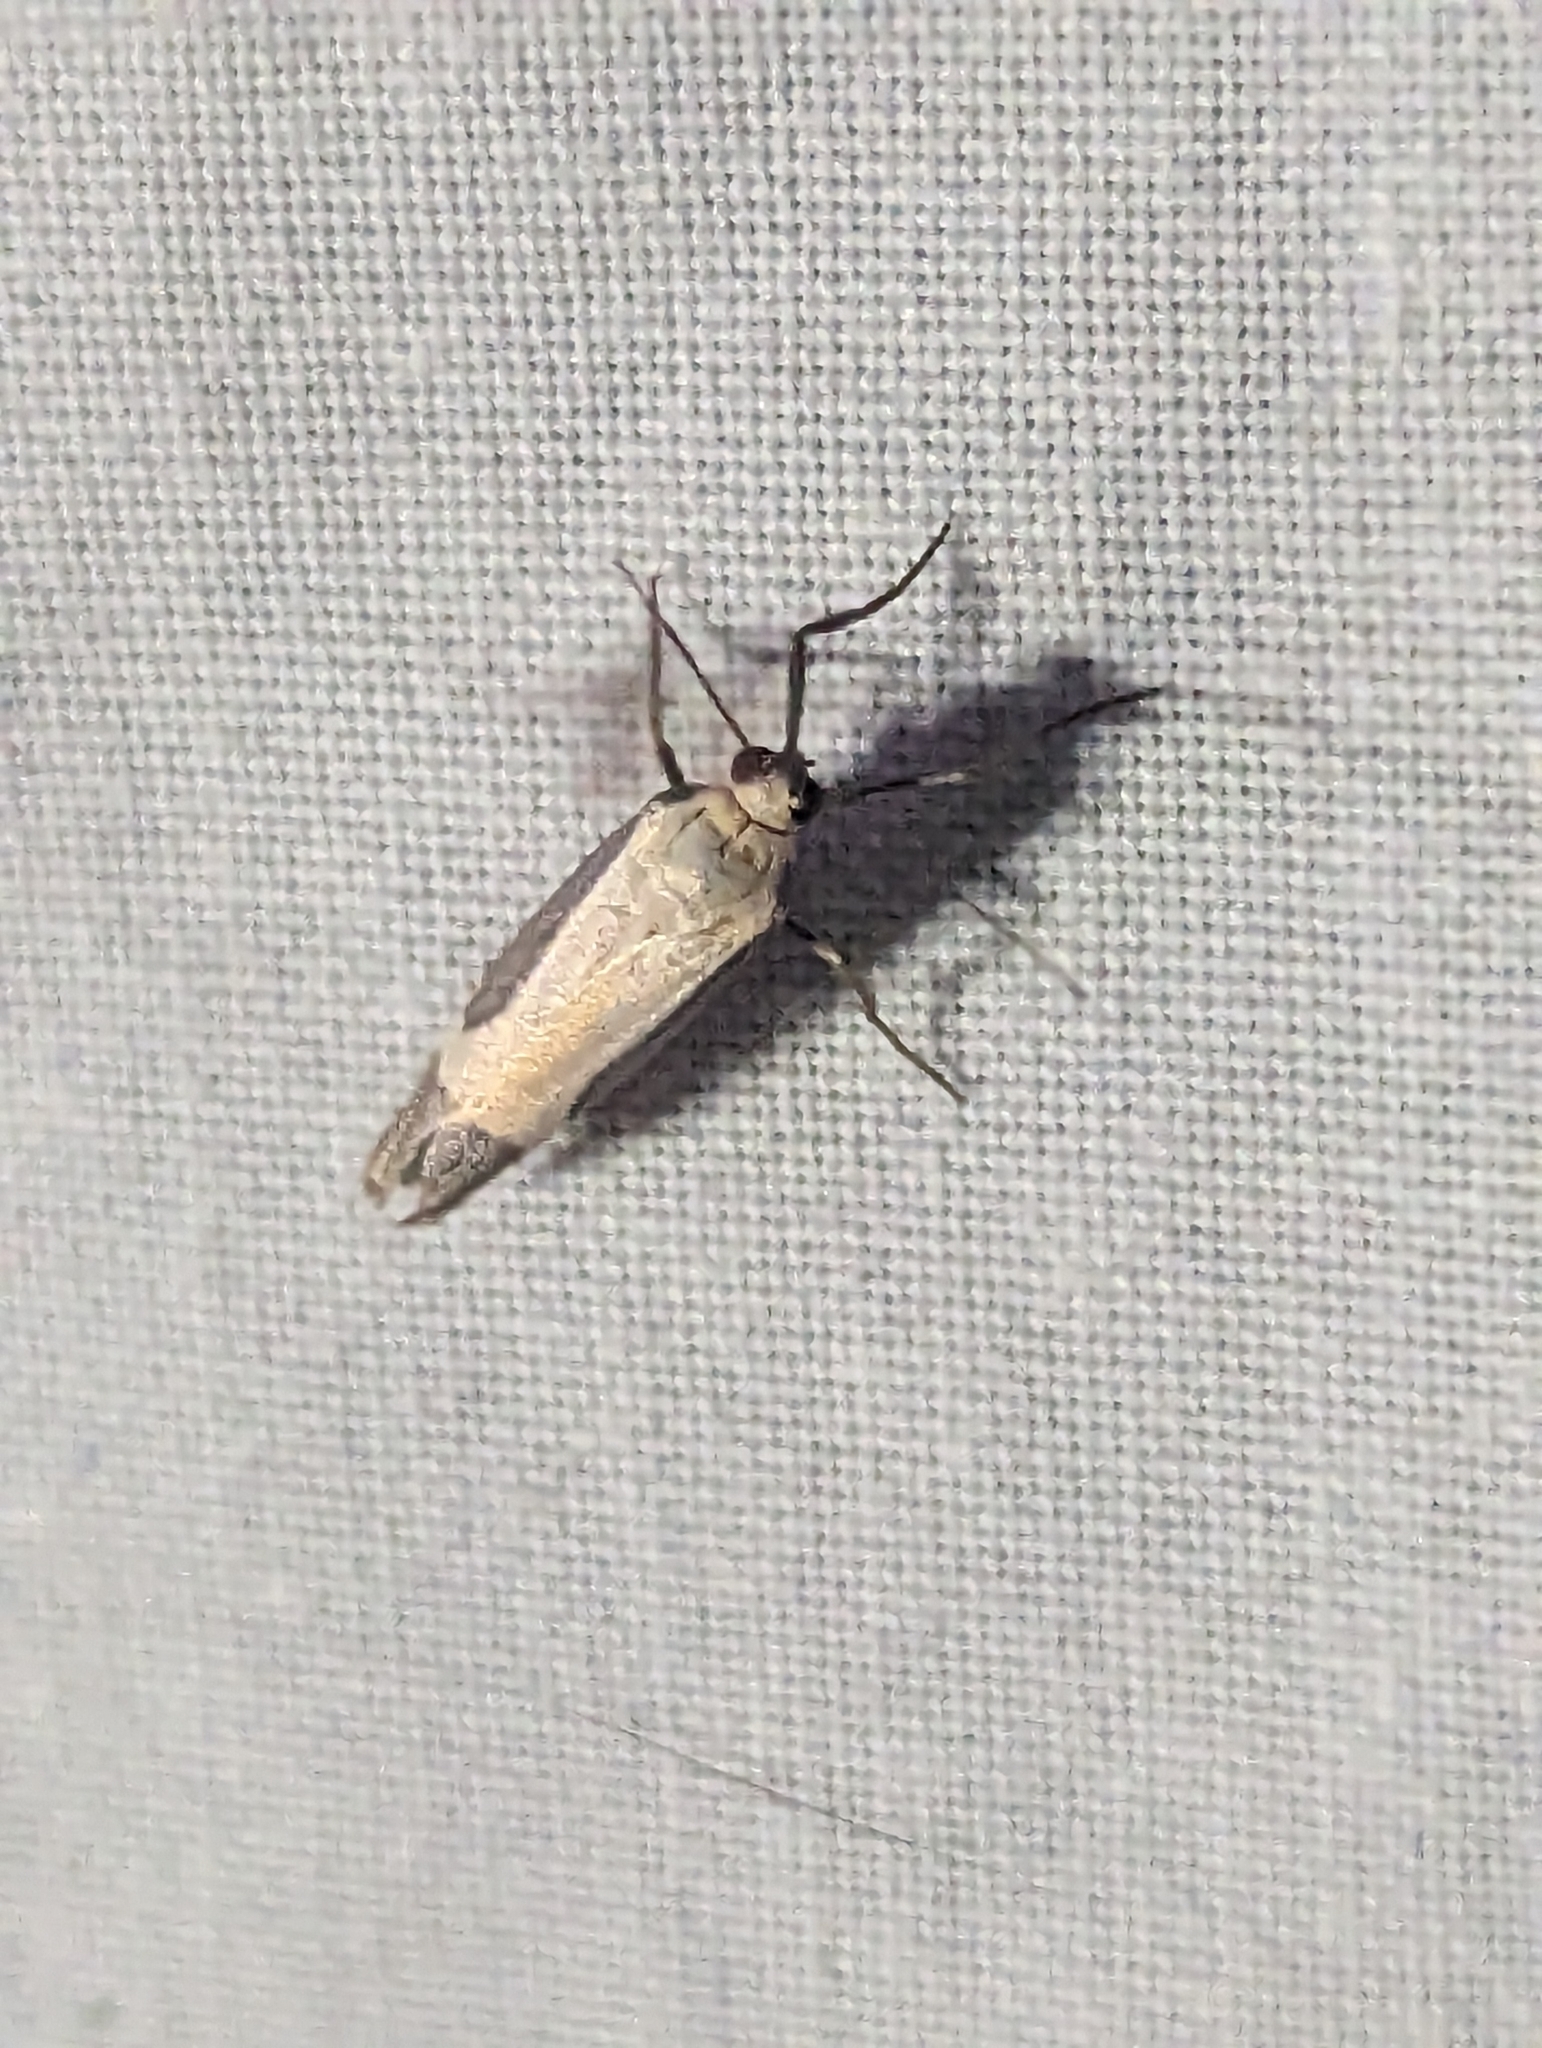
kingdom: Animalia
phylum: Arthropoda
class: Insecta
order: Lepidoptera
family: Erebidae
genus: Cisthene
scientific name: Cisthene angelus
